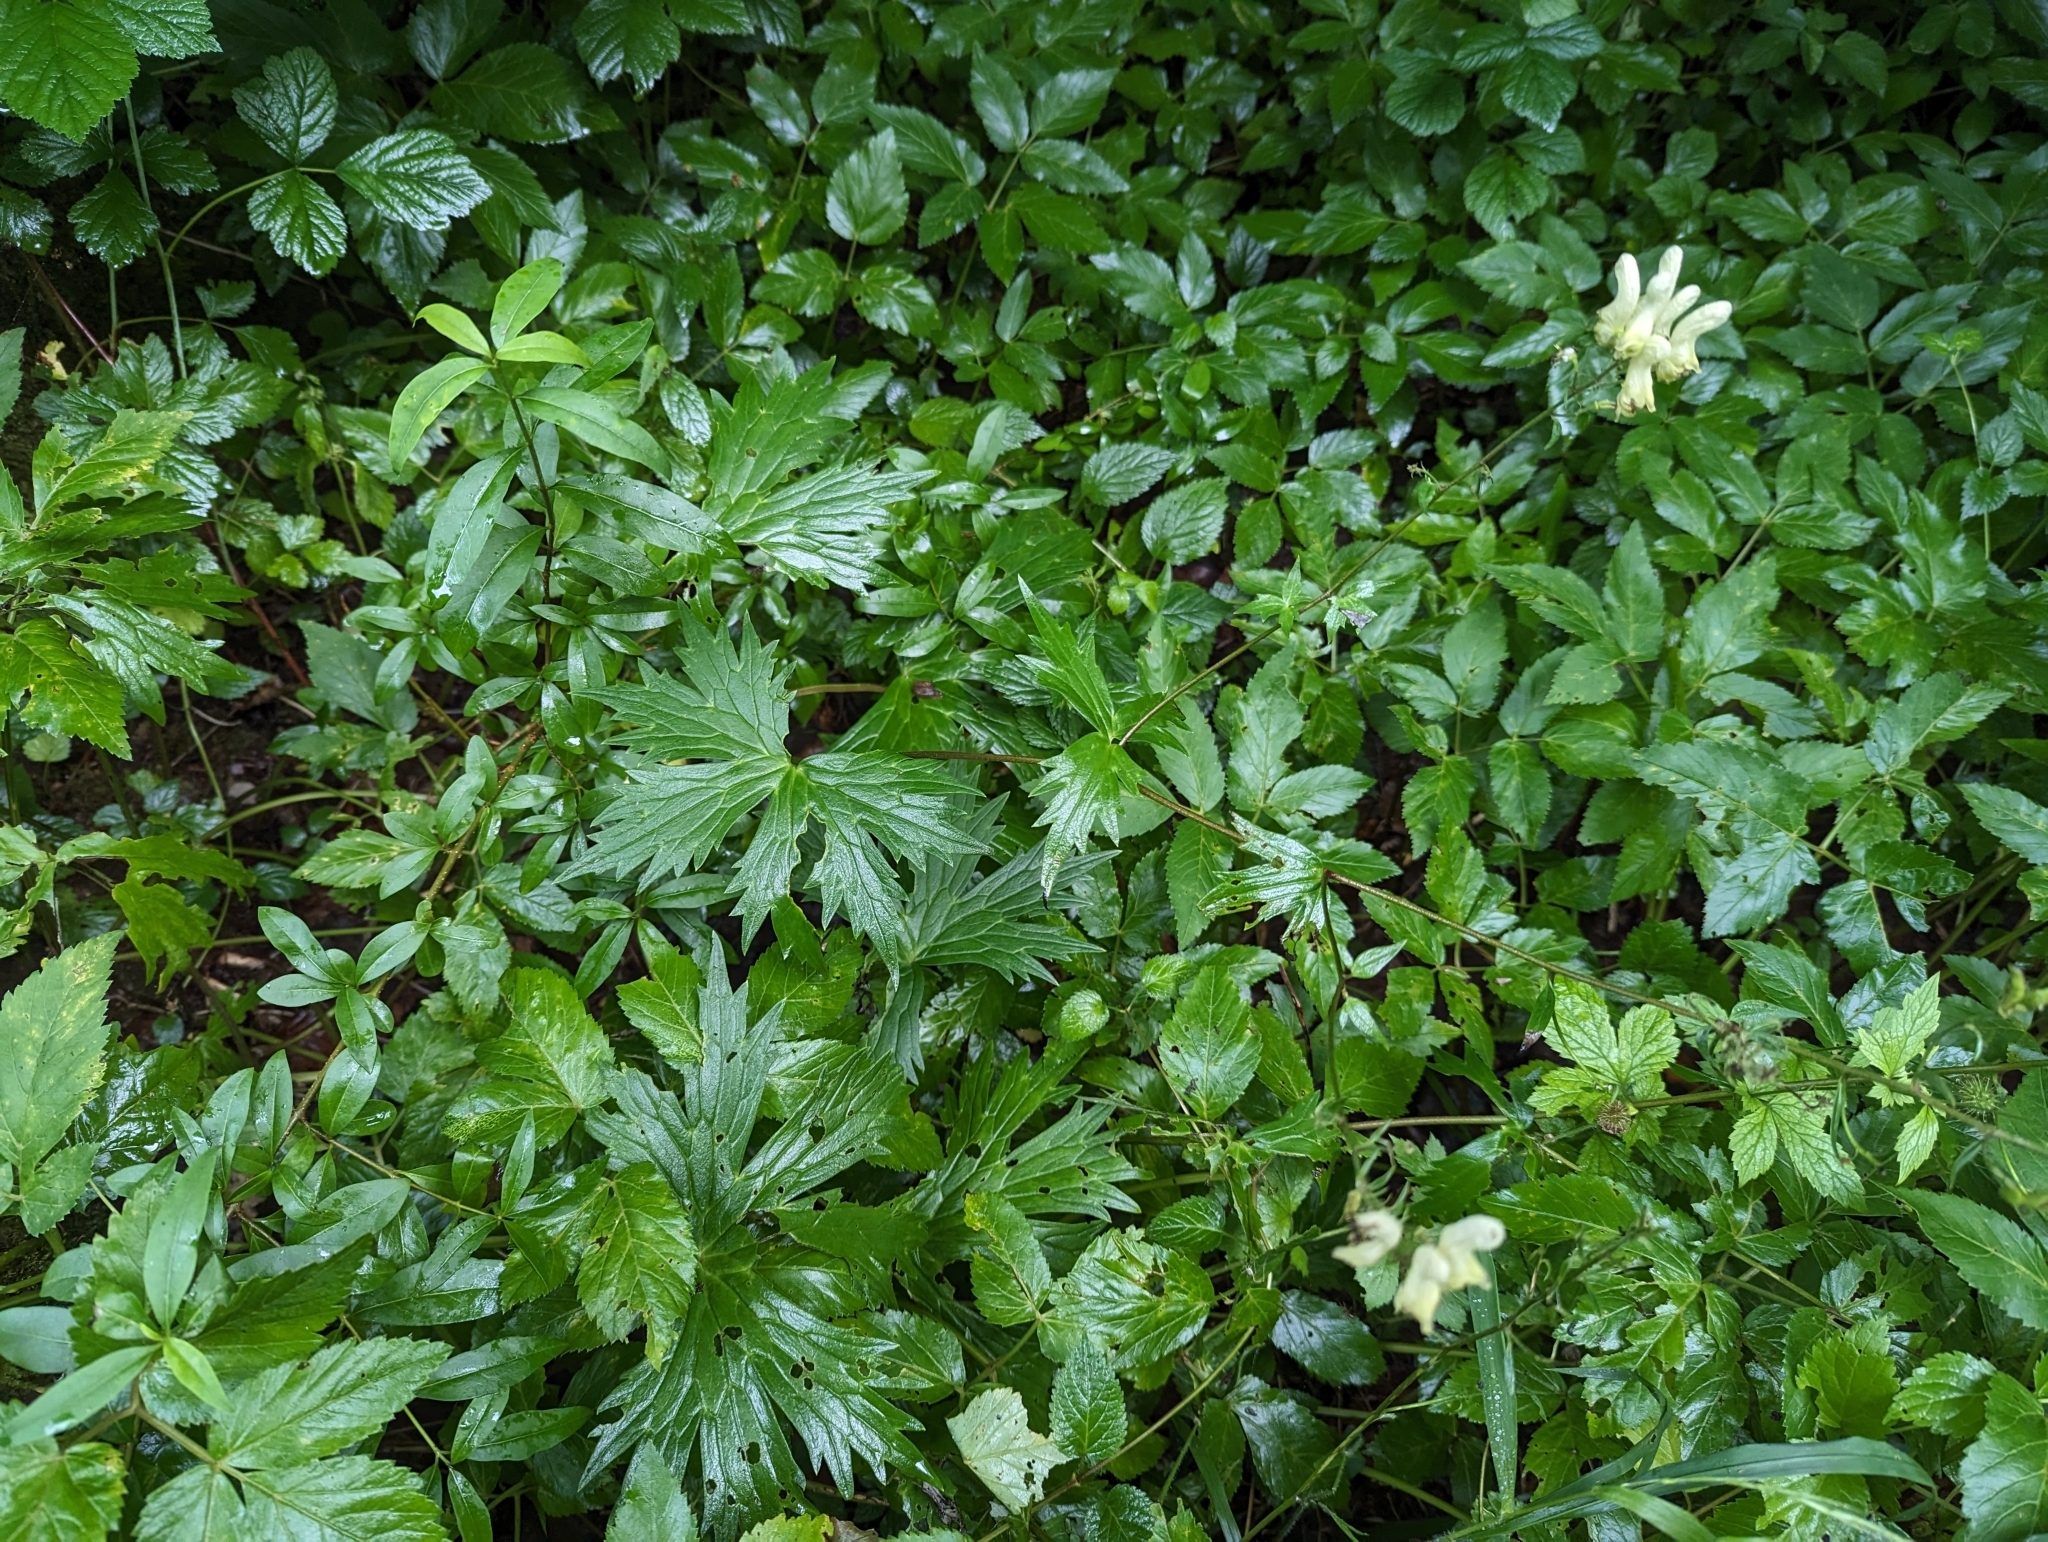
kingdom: Plantae
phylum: Tracheophyta
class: Magnoliopsida
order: Ranunculales
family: Ranunculaceae
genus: Aconitum
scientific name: Aconitum lycoctonum
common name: Wolf's-bane
